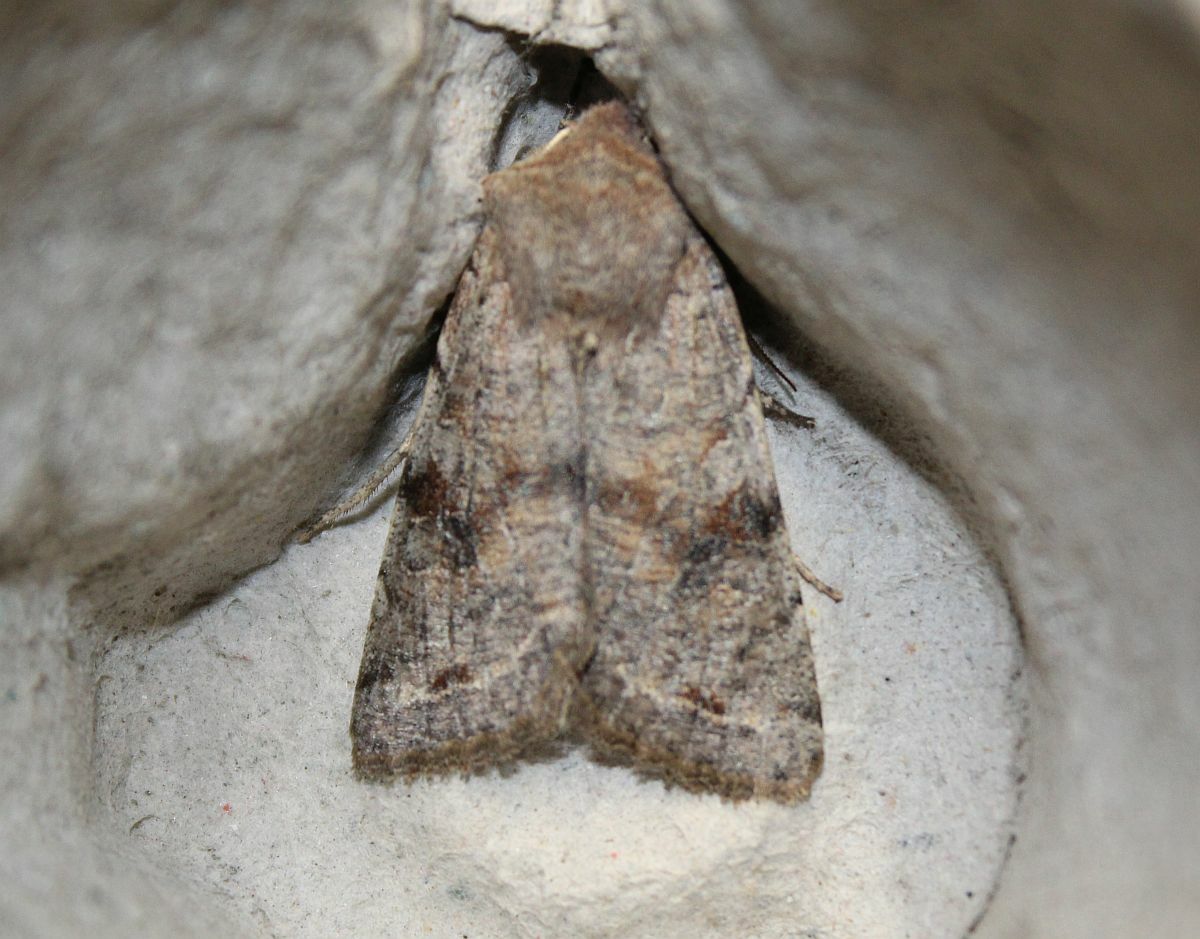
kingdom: Animalia
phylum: Arthropoda
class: Insecta
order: Lepidoptera
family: Noctuidae
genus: Orthosia
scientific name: Orthosia incerta
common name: Clouded drab
